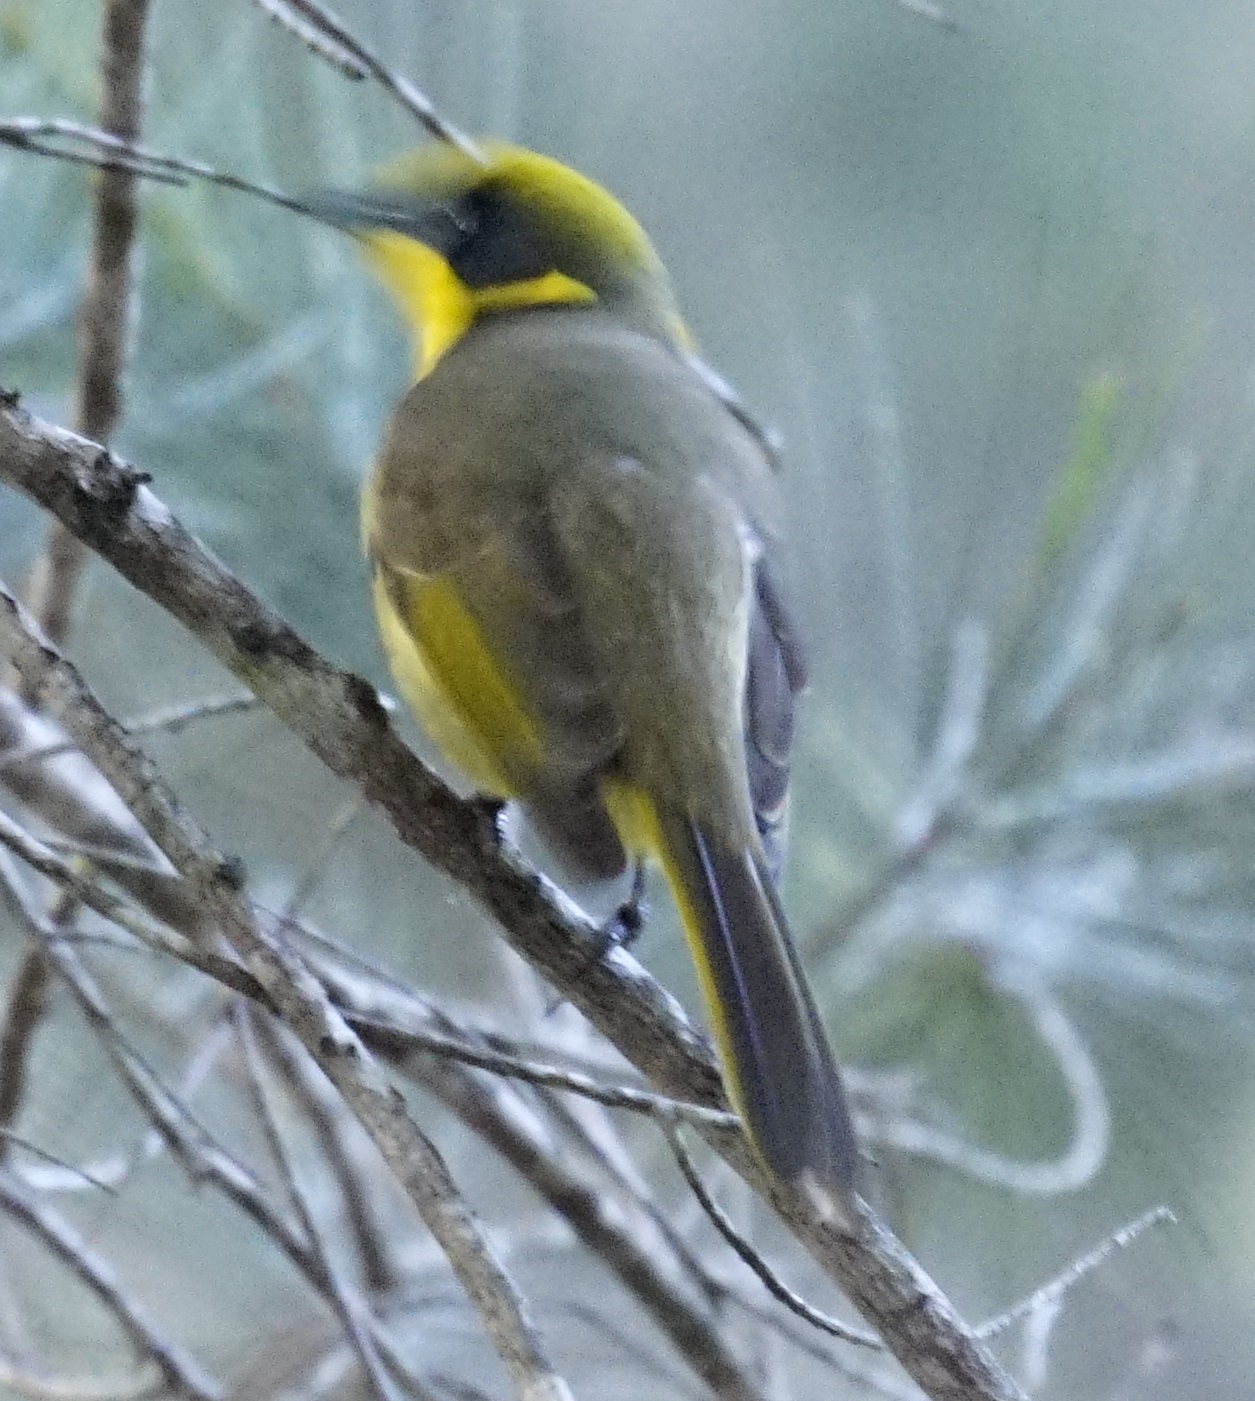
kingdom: Animalia
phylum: Chordata
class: Aves
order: Passeriformes
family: Meliphagidae
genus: Lichenostomus
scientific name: Lichenostomus melanops
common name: Yellow-tufted honeyeater
